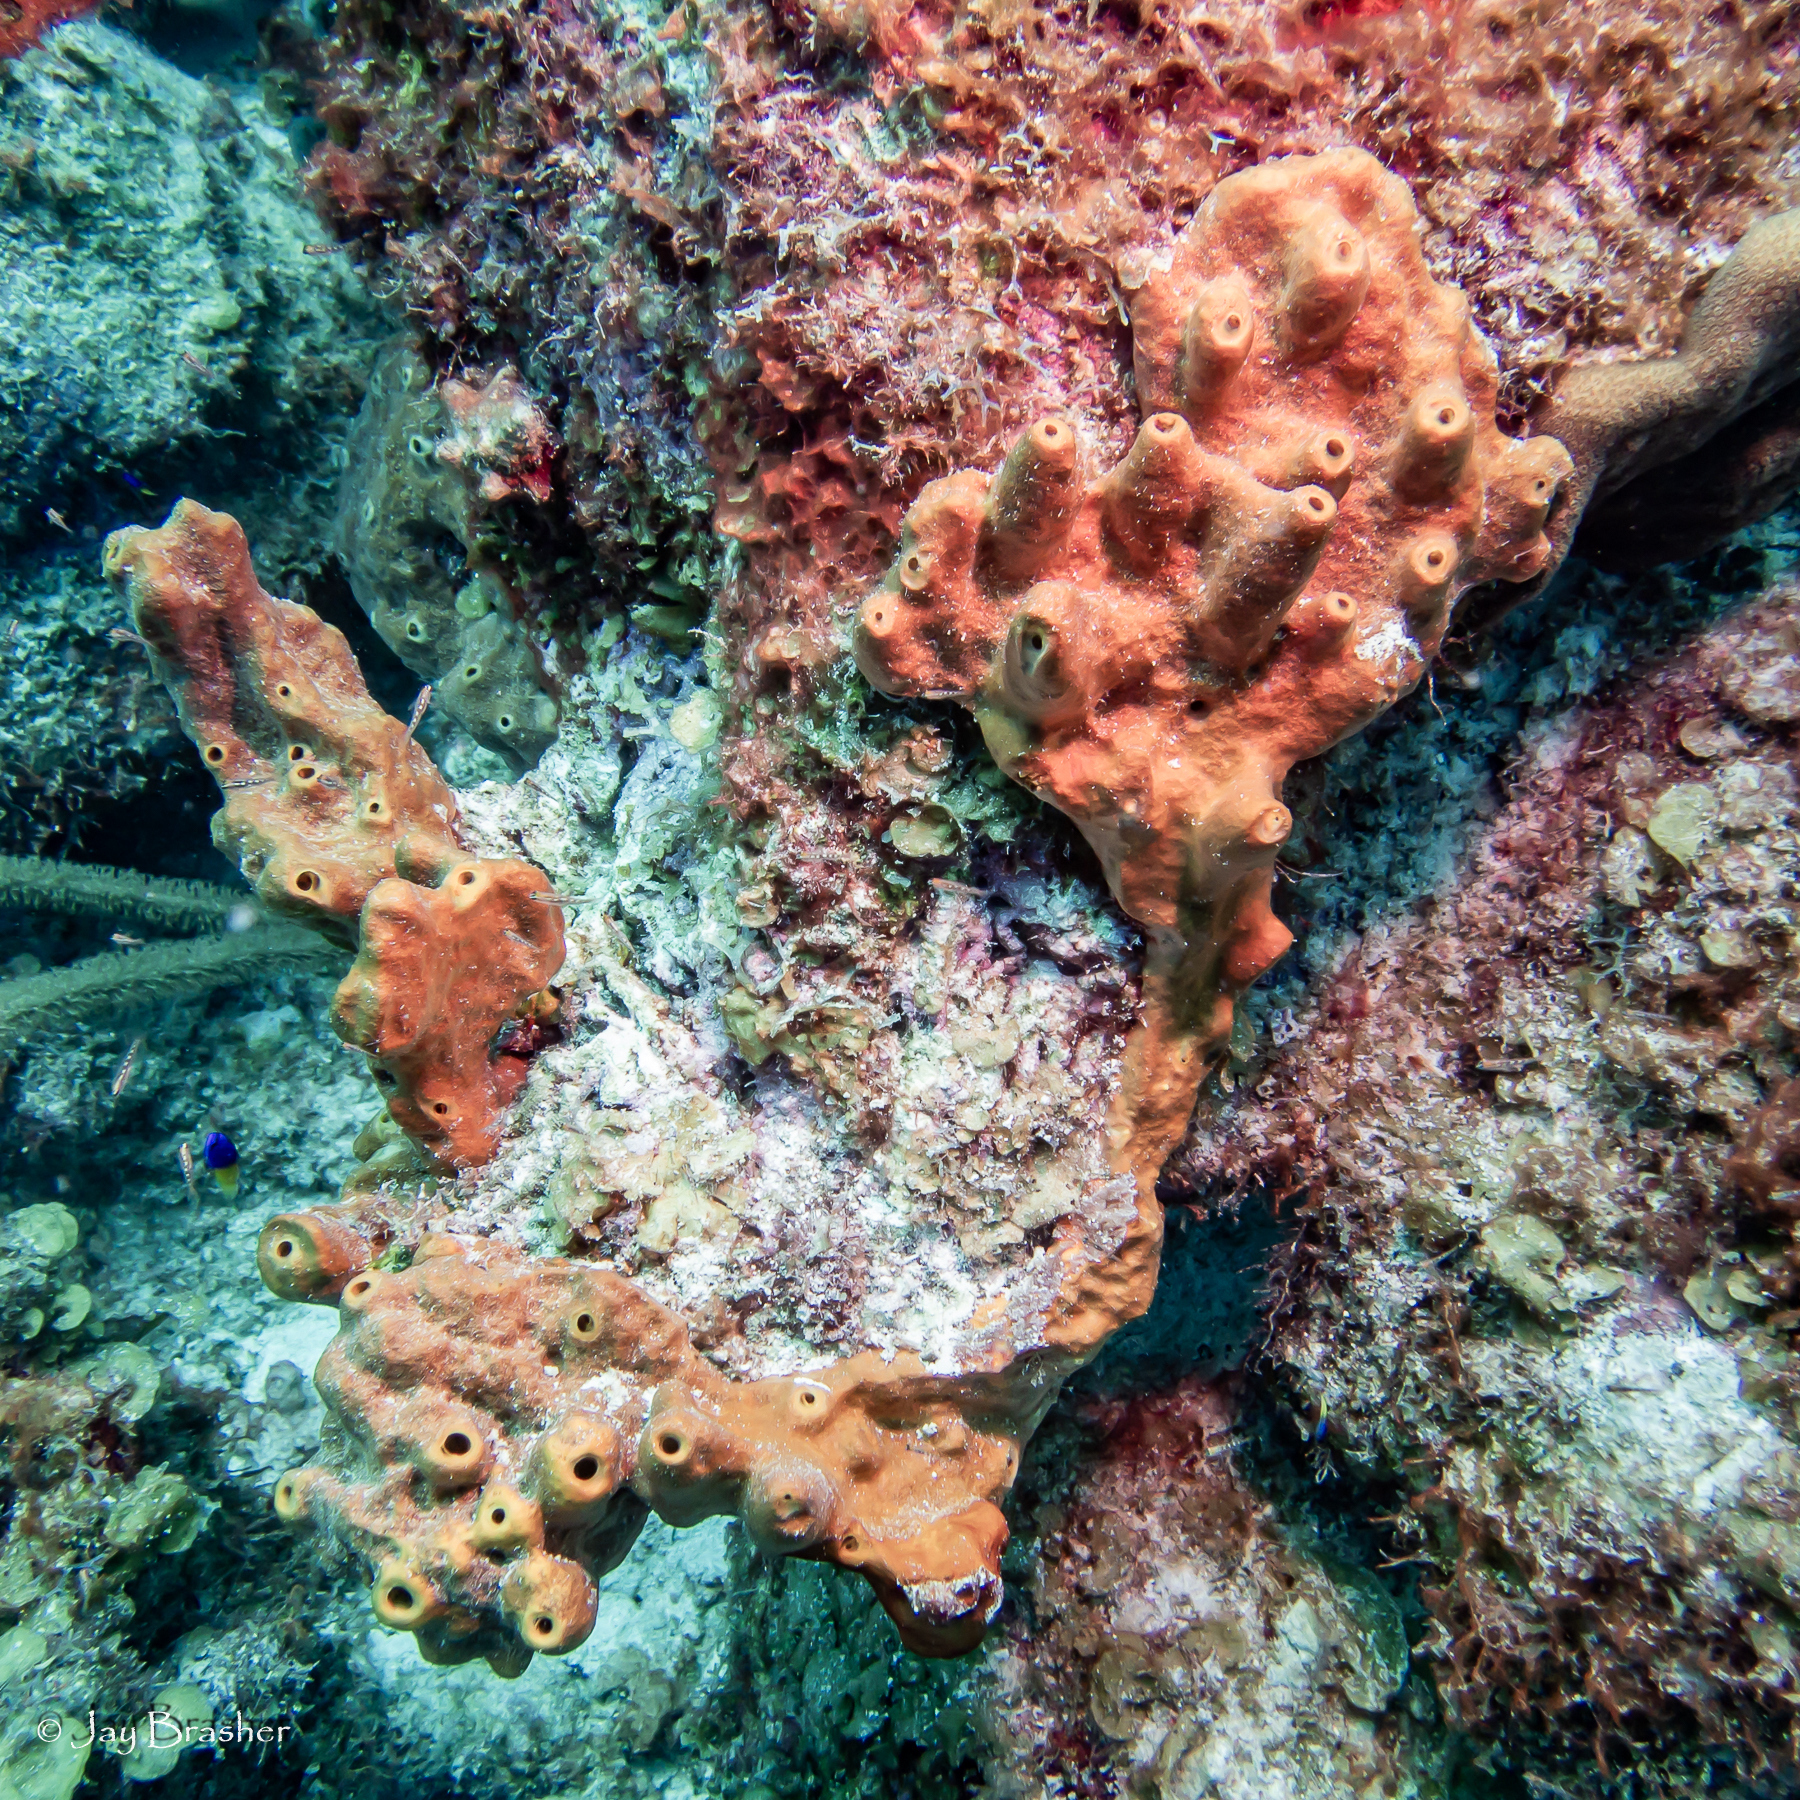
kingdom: Animalia
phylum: Porifera
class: Demospongiae
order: Axinellida
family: Raspailiidae
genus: Ectyoplasia
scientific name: Ectyoplasia ferox
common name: Brown encrusting octopus sponge
